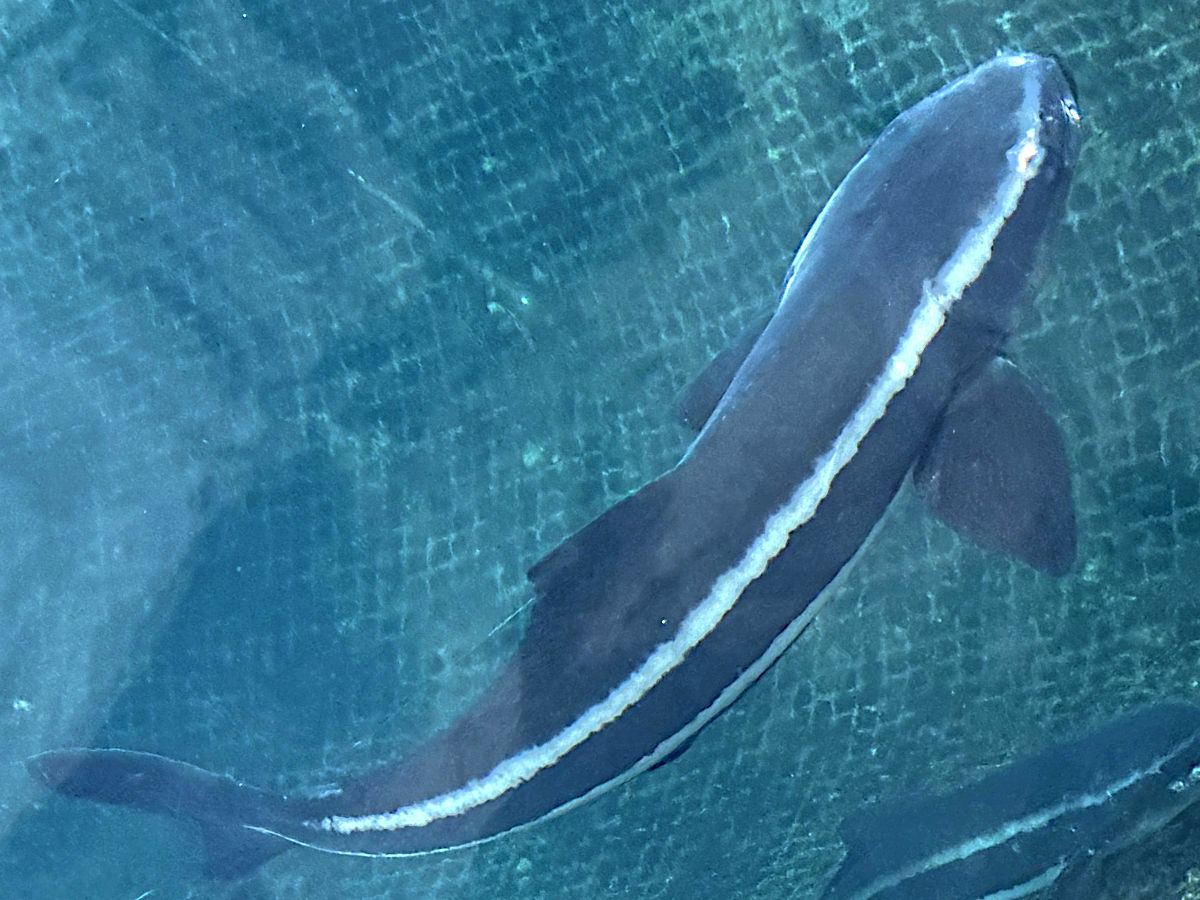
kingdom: Animalia
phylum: Chordata
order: Perciformes
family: Rachycentridae
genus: Rachycentron
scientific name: Rachycentron canadum
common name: Cobia
